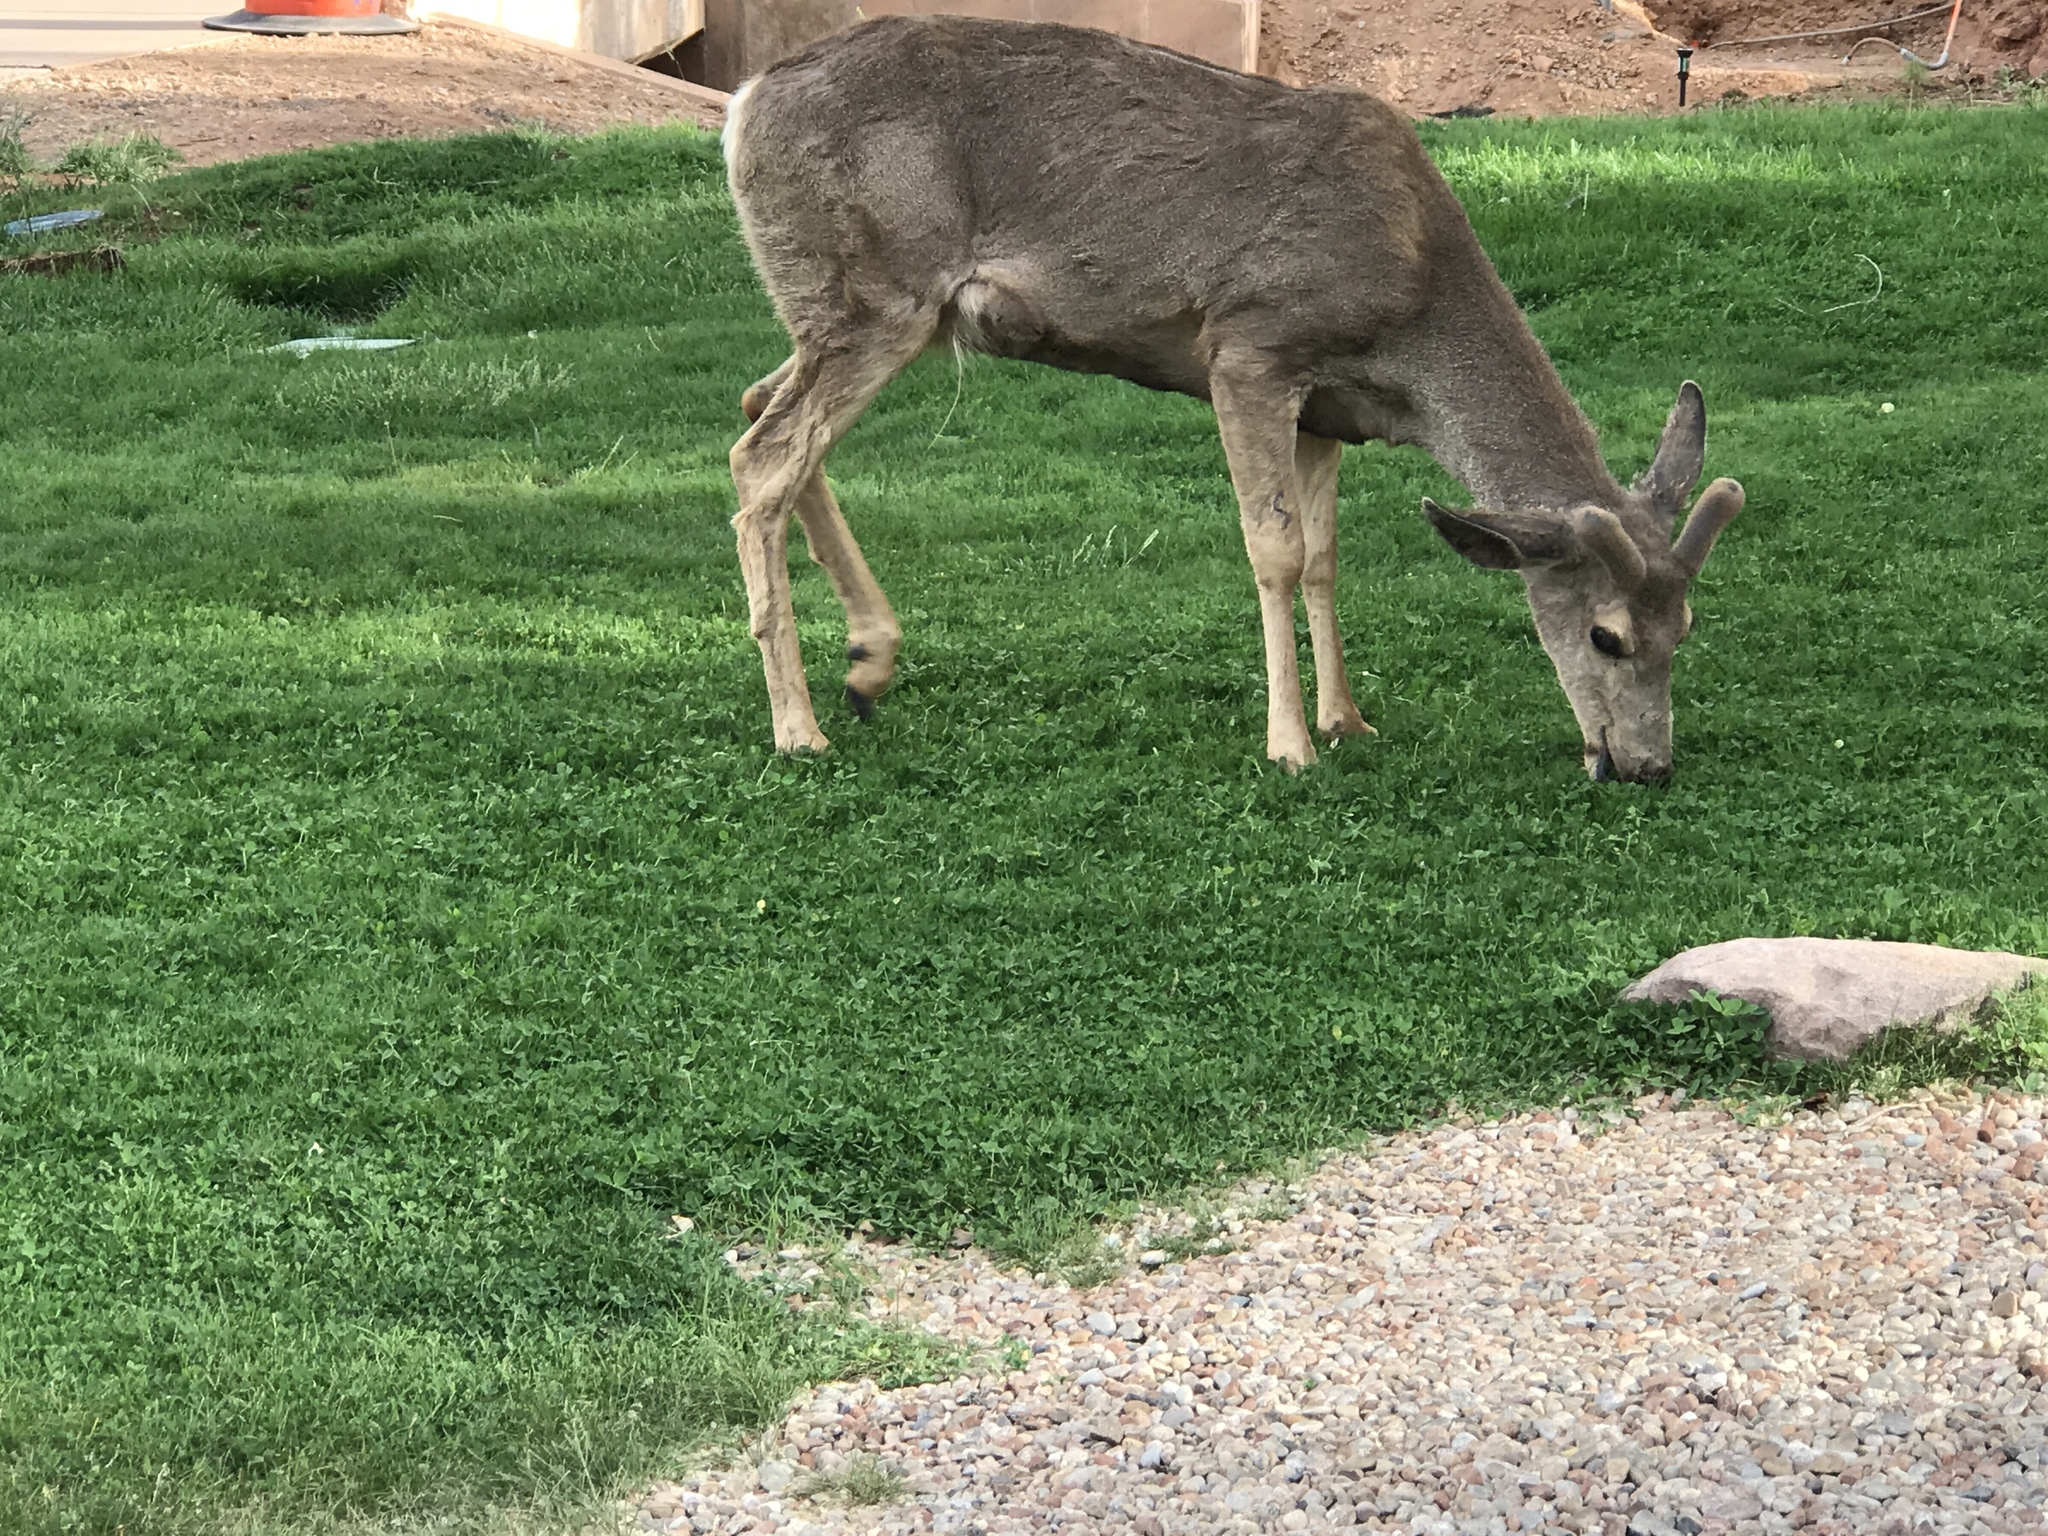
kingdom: Animalia
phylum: Chordata
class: Mammalia
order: Artiodactyla
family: Cervidae
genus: Odocoileus
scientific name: Odocoileus hemionus
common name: Mule deer
